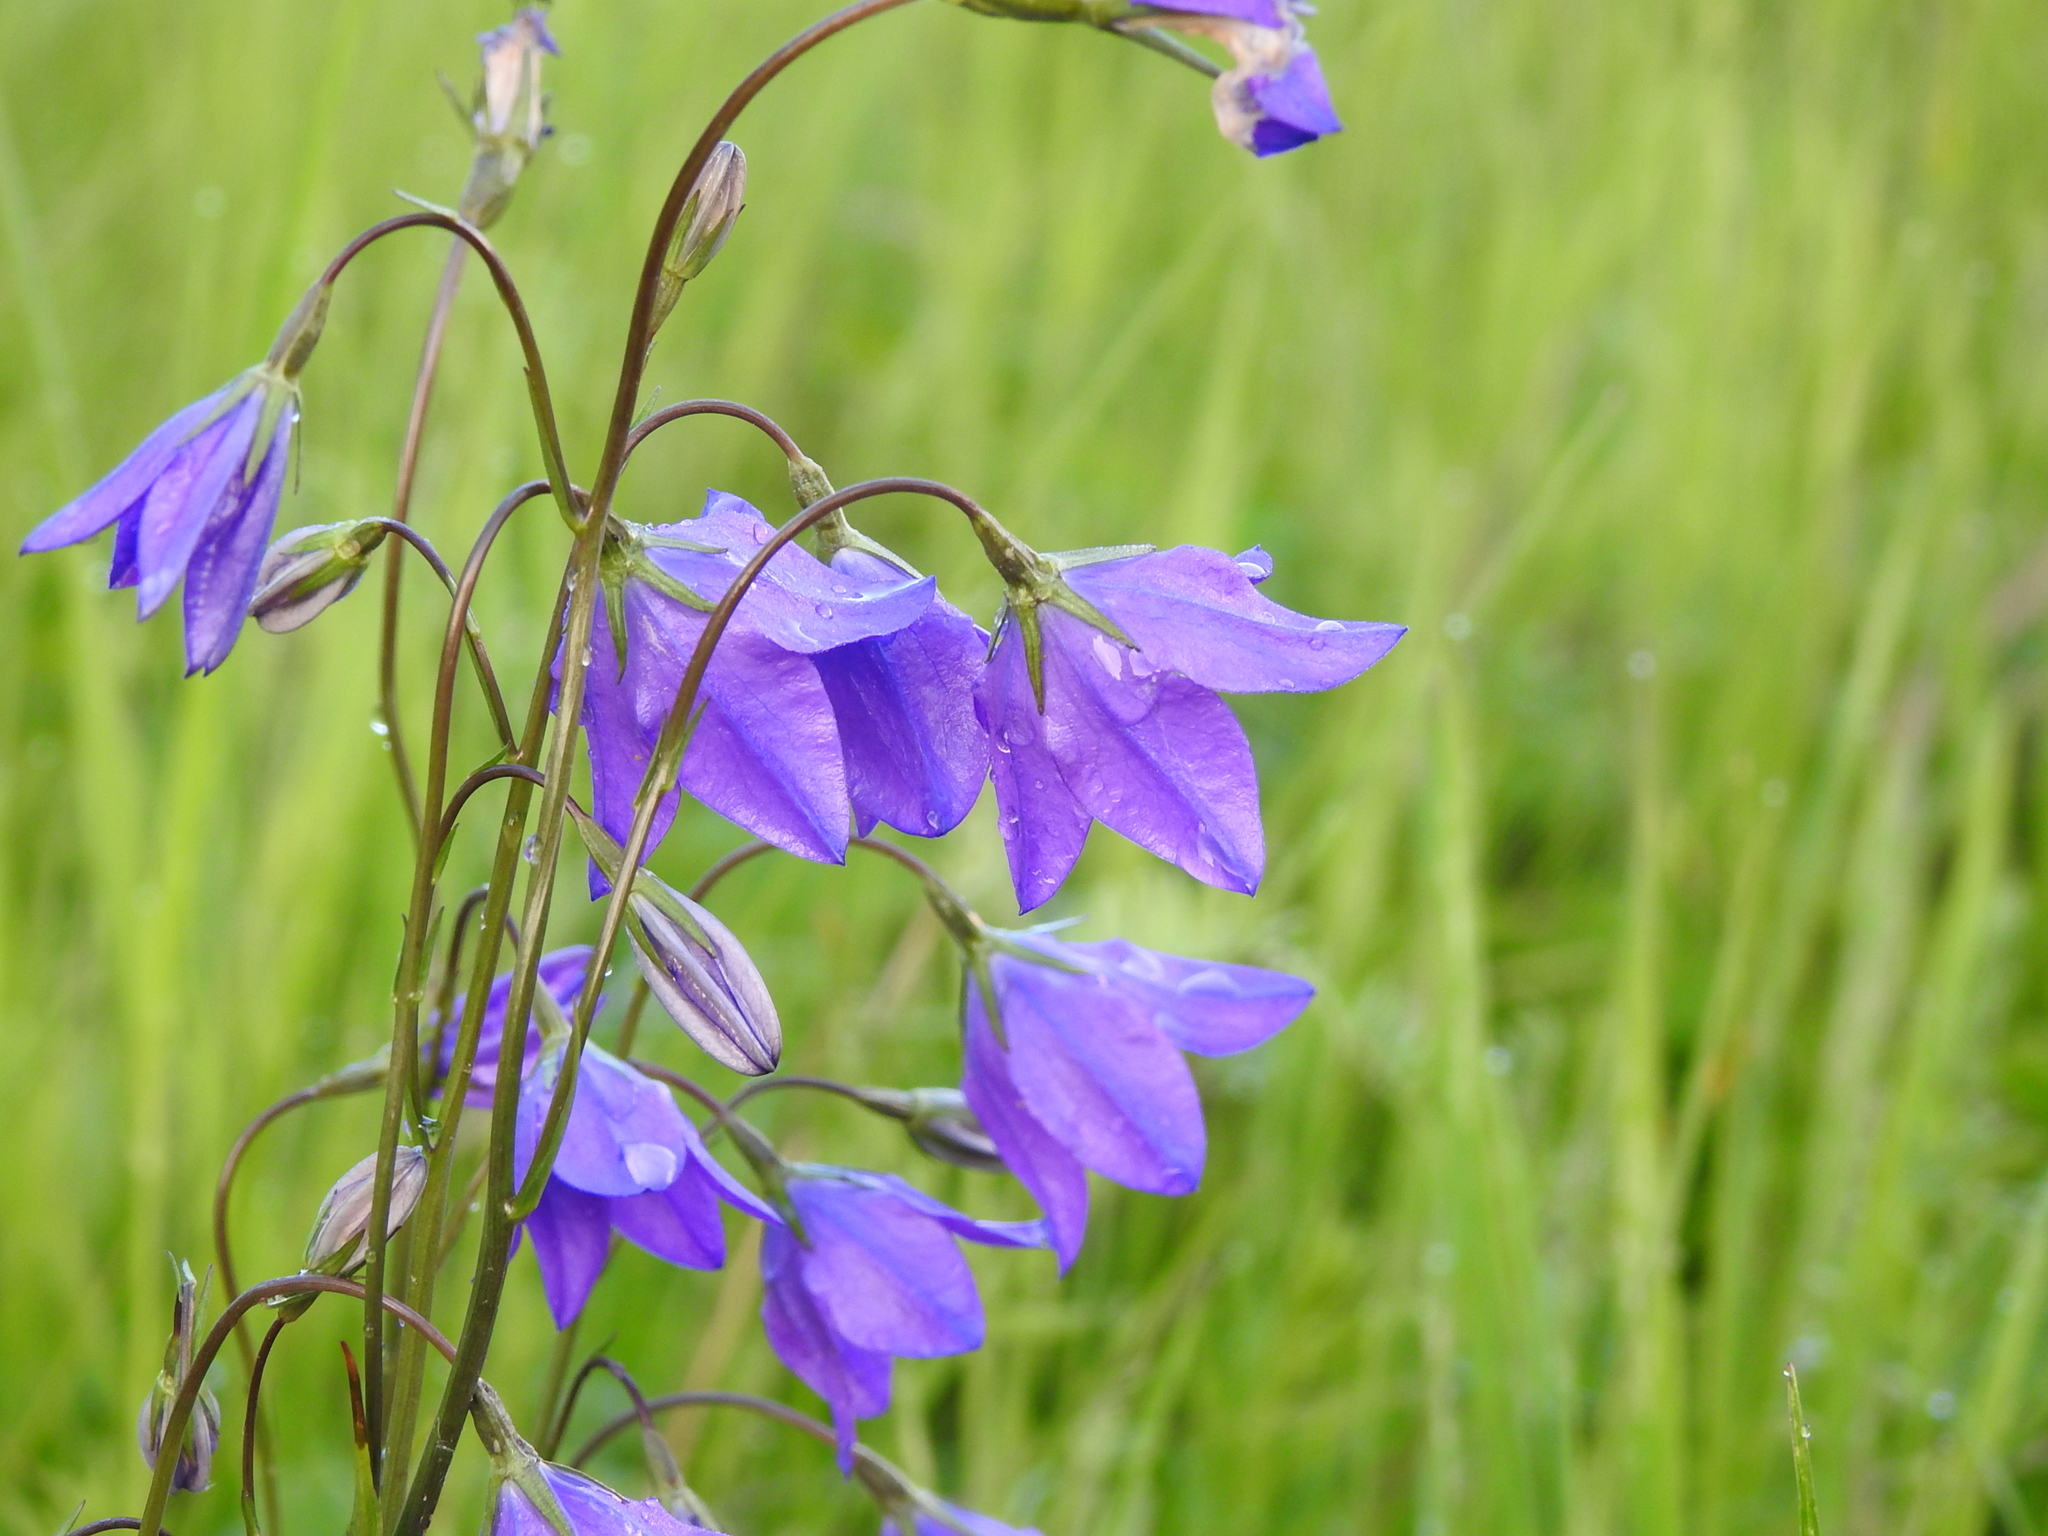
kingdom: Plantae
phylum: Tracheophyta
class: Magnoliopsida
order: Asterales
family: Campanulaceae
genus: Campanula
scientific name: Campanula stevenii
